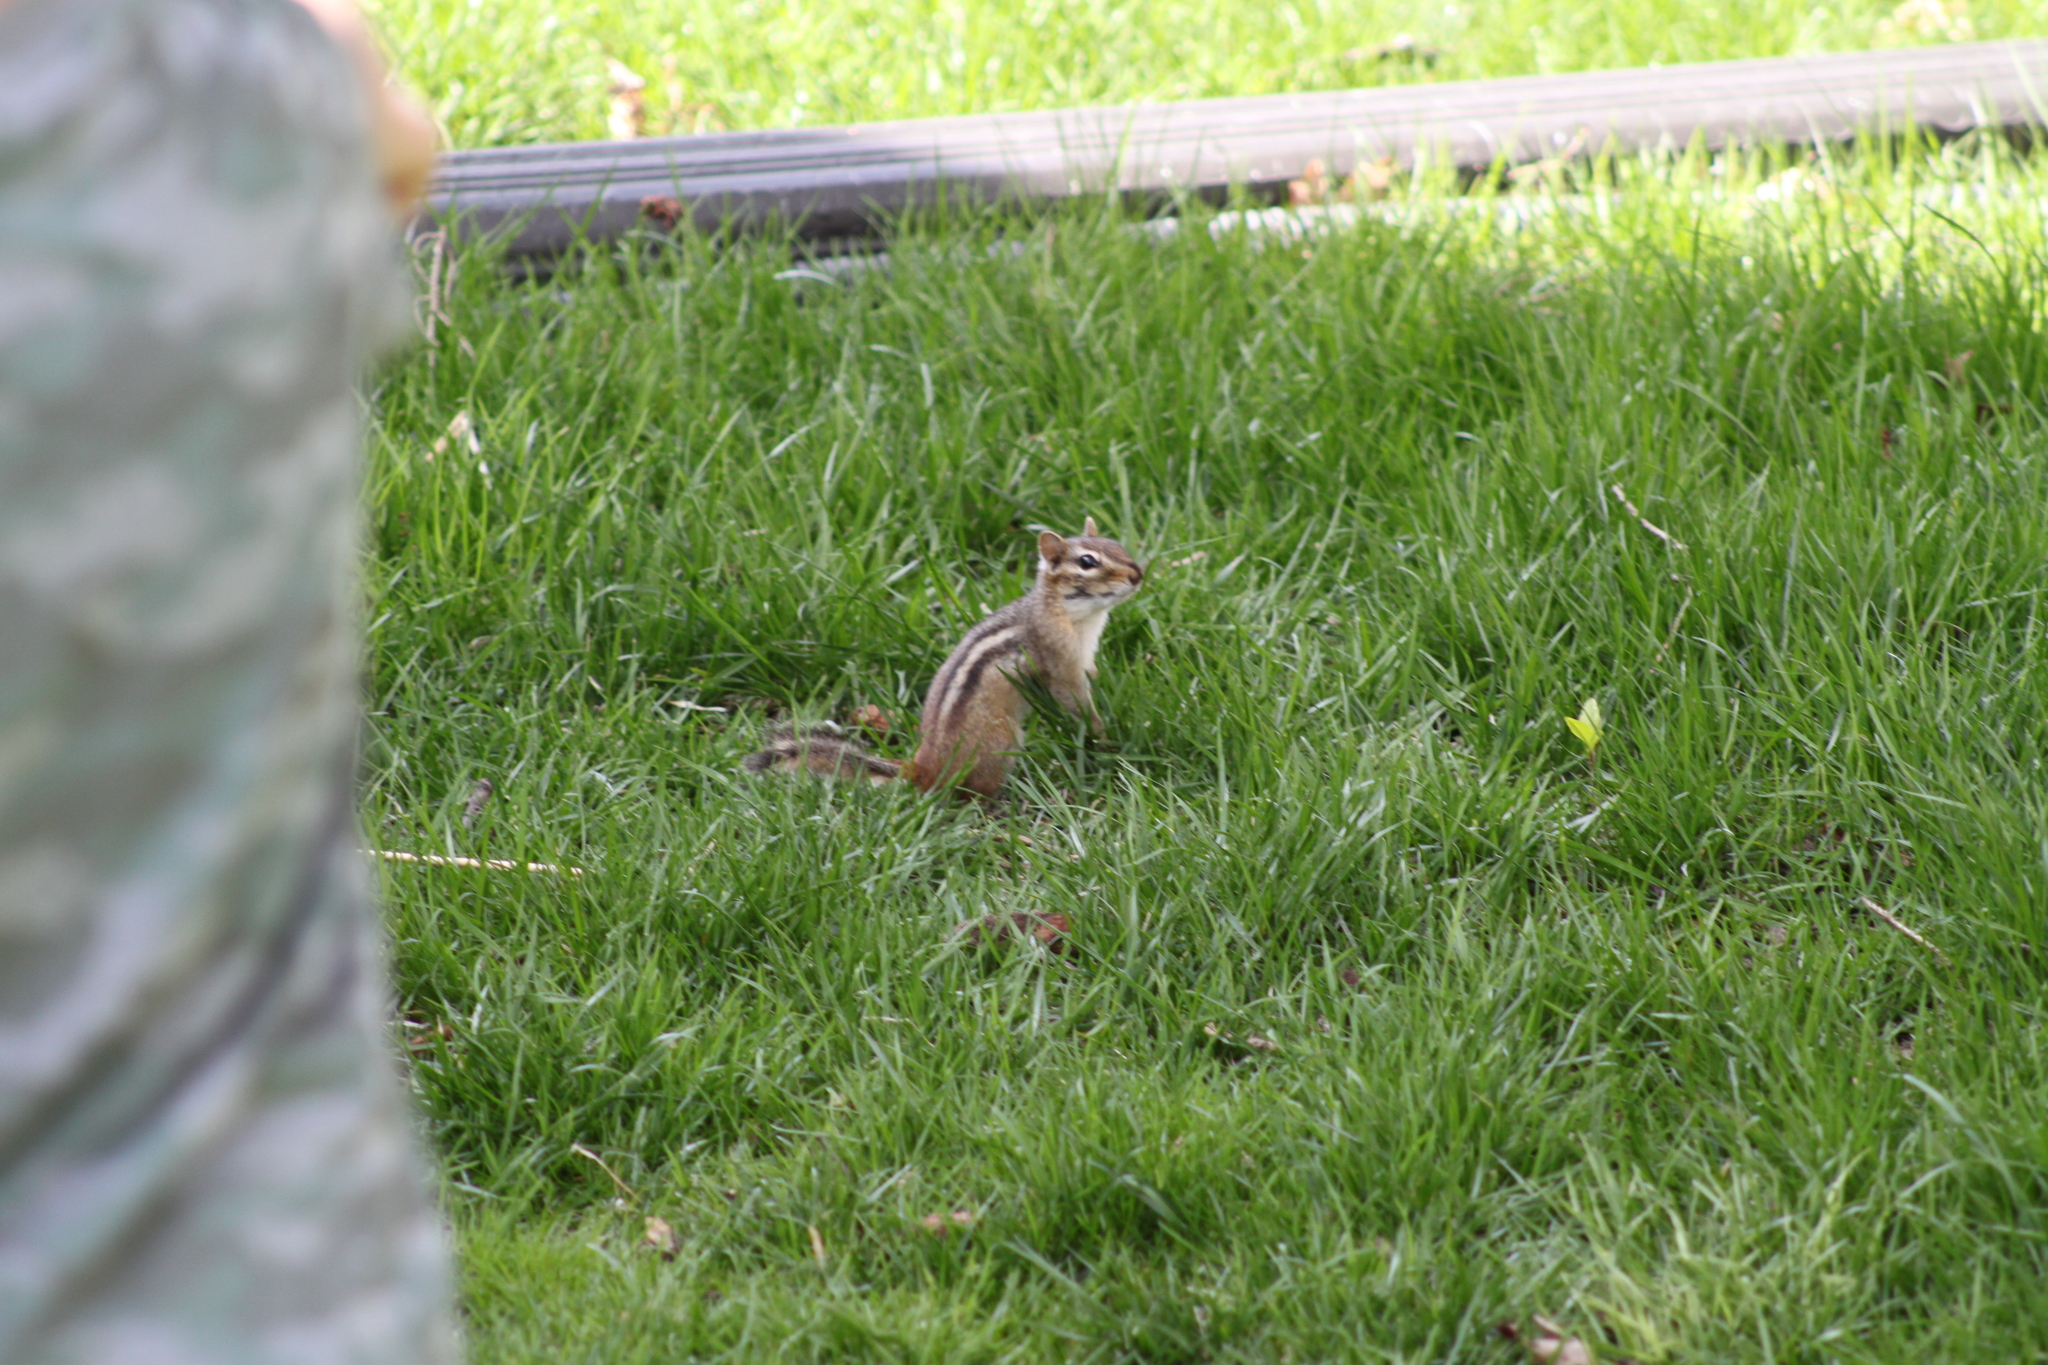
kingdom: Animalia
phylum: Chordata
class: Mammalia
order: Rodentia
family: Sciuridae
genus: Tamias
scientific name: Tamias striatus
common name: Eastern chipmunk
